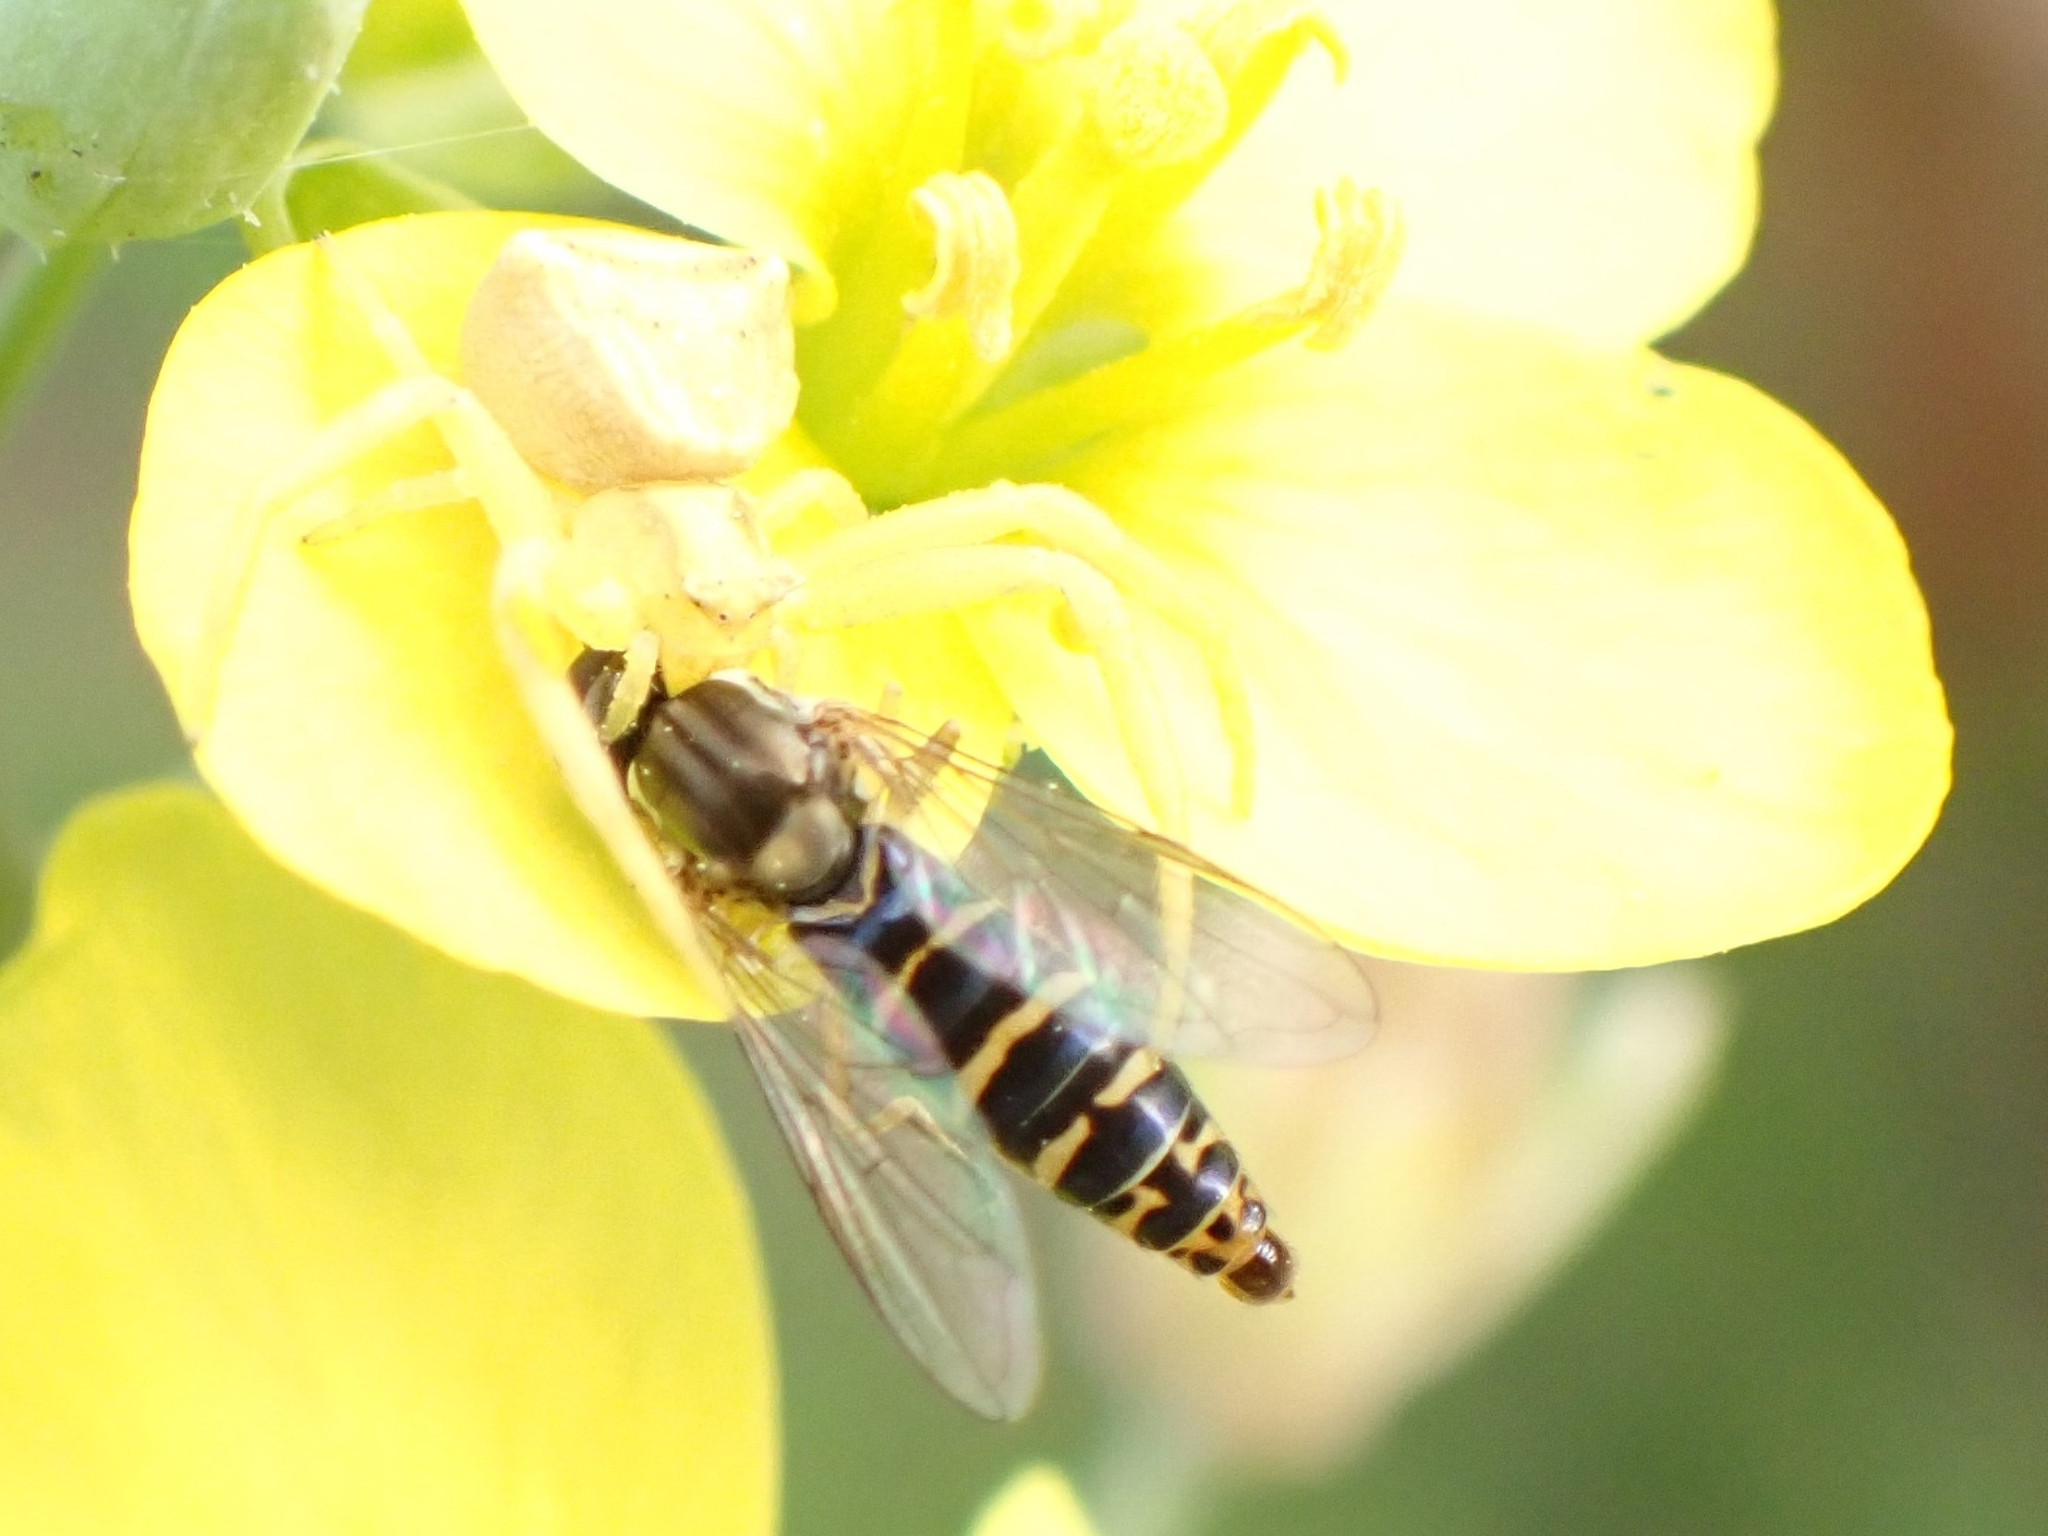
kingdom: Animalia
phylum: Arthropoda
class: Insecta
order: Diptera
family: Syrphidae
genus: Sphaerophoria
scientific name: Sphaerophoria scripta
